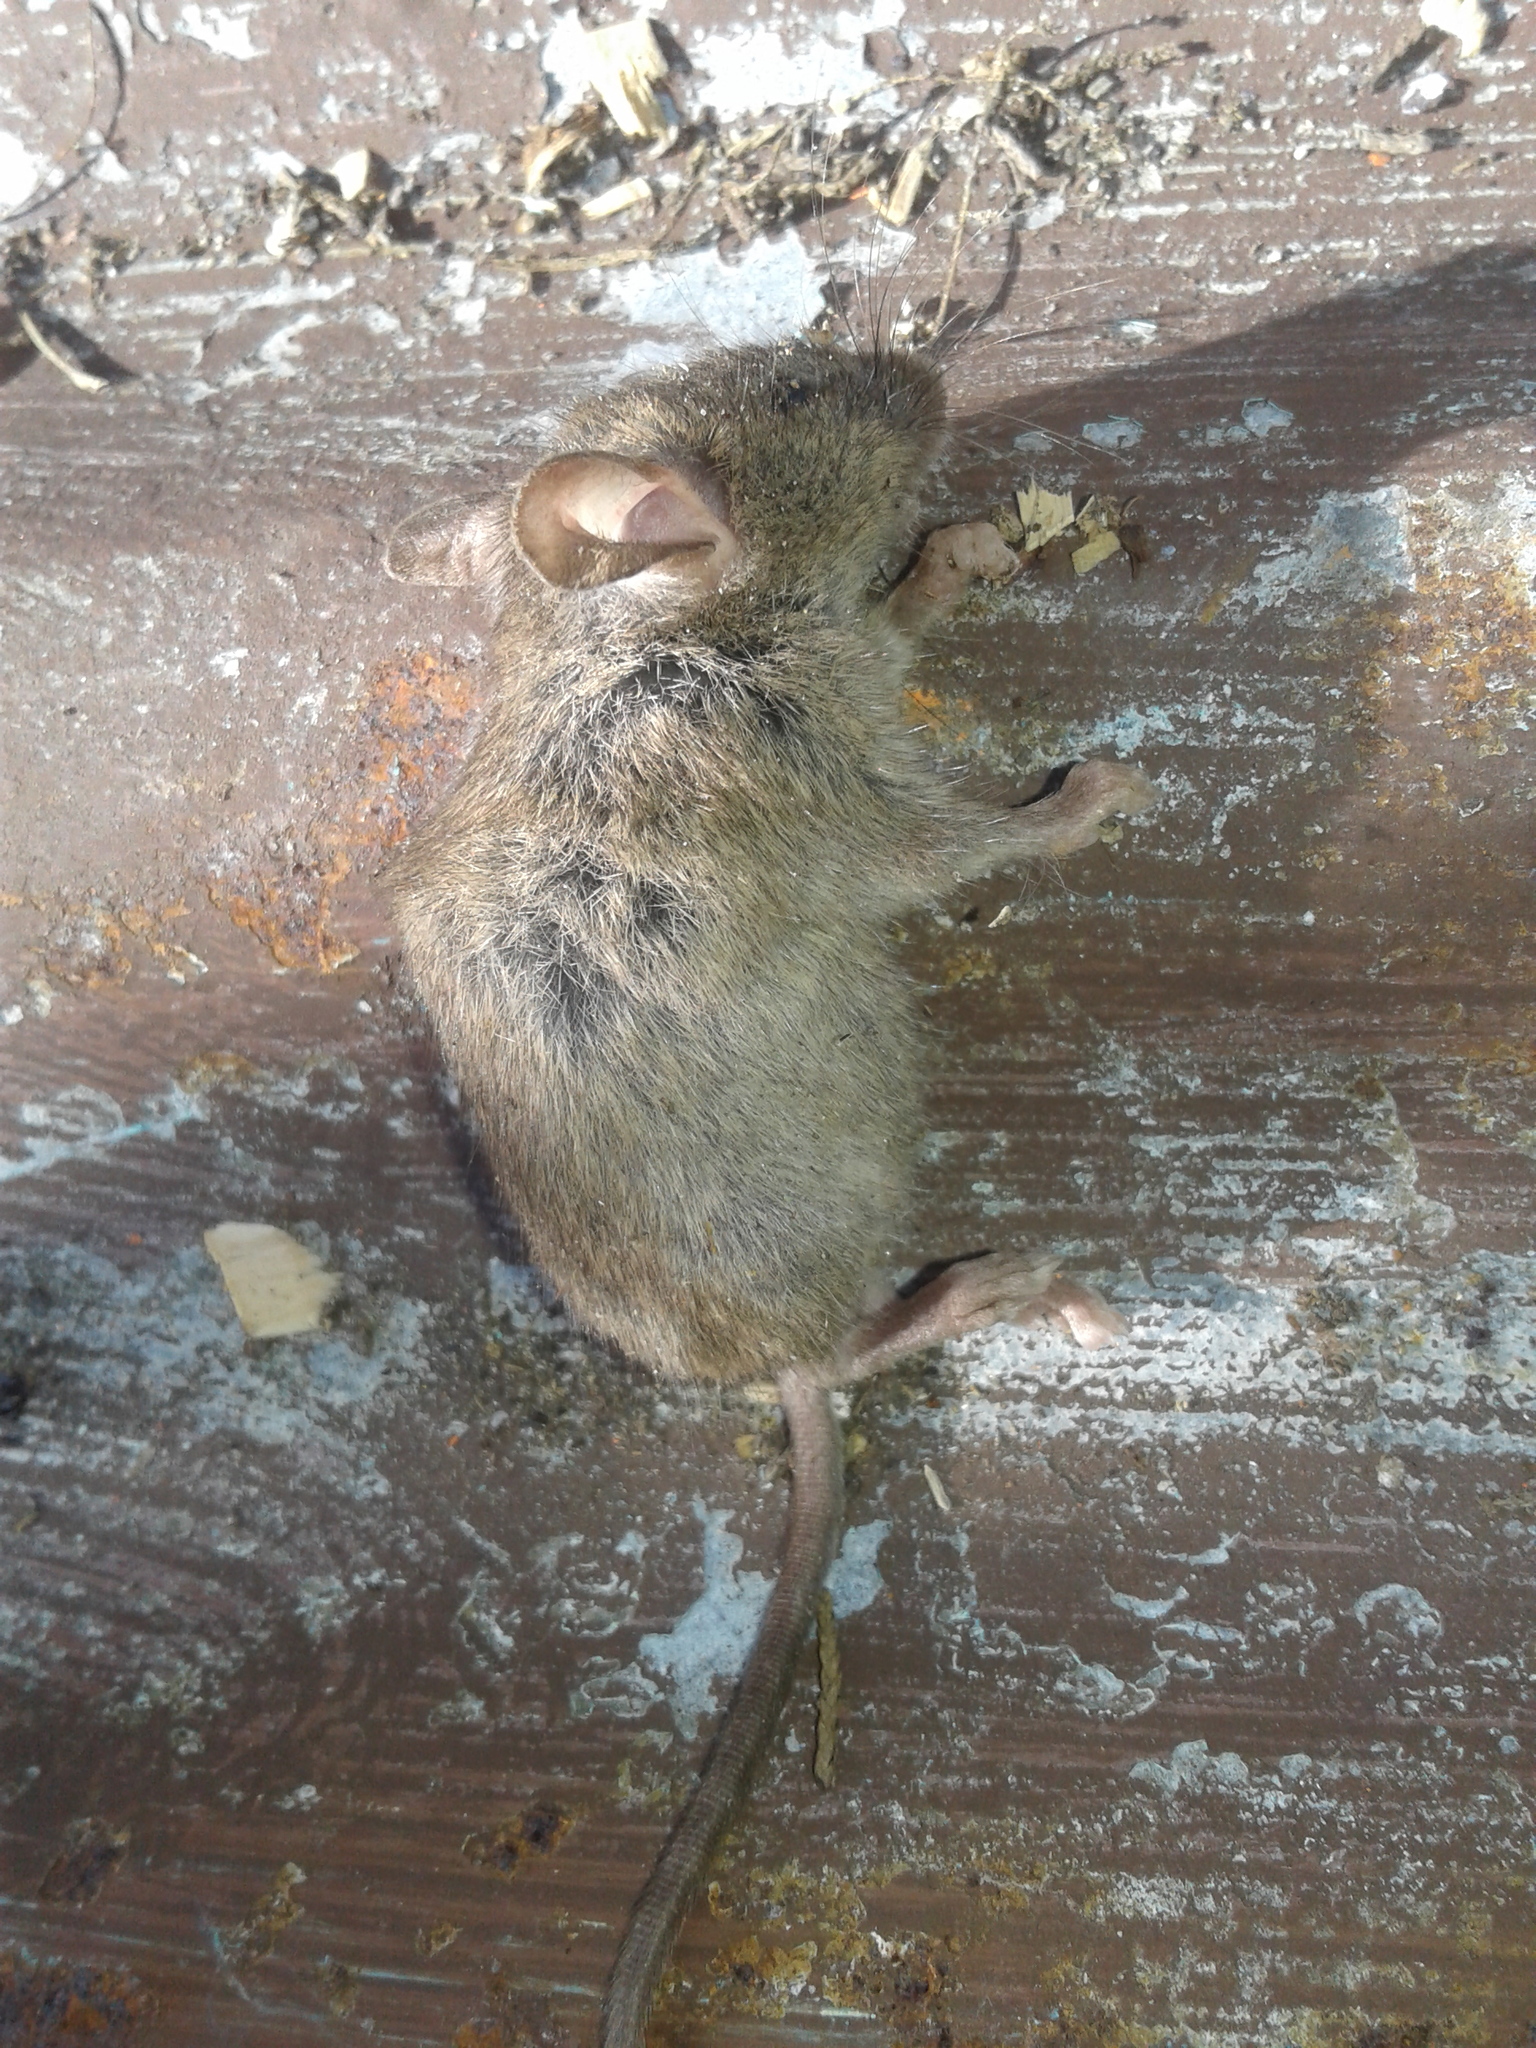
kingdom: Animalia
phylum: Chordata
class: Mammalia
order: Rodentia
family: Muridae
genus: Mus
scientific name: Mus musculus
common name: House mouse
